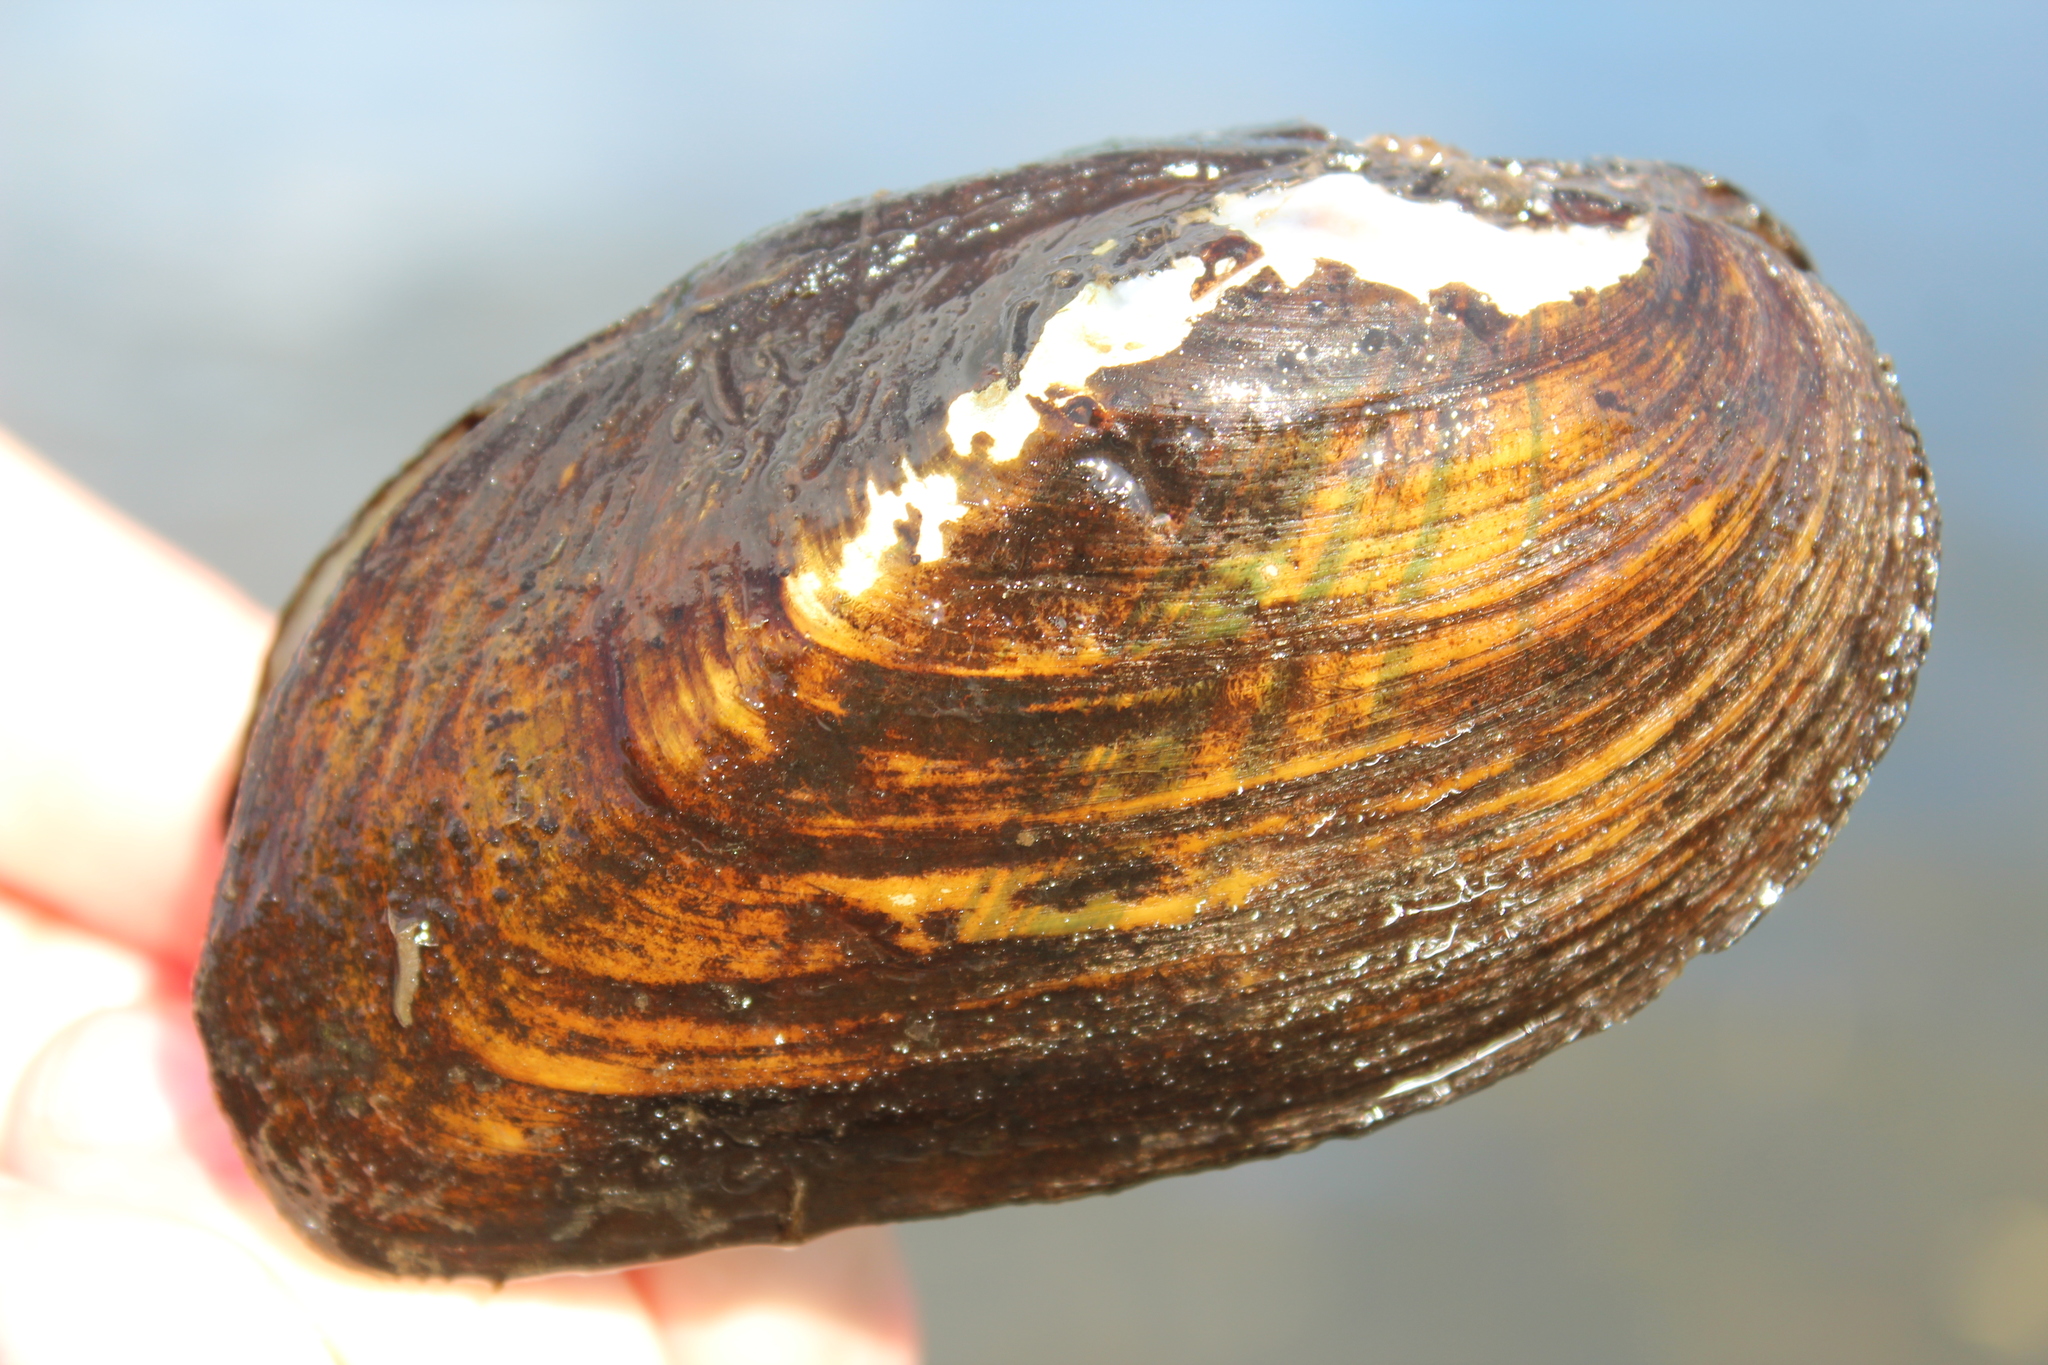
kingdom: Animalia
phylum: Mollusca
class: Bivalvia
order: Unionida
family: Unionidae
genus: Elliptio
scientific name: Elliptio complanata
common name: Eastern elliptio
